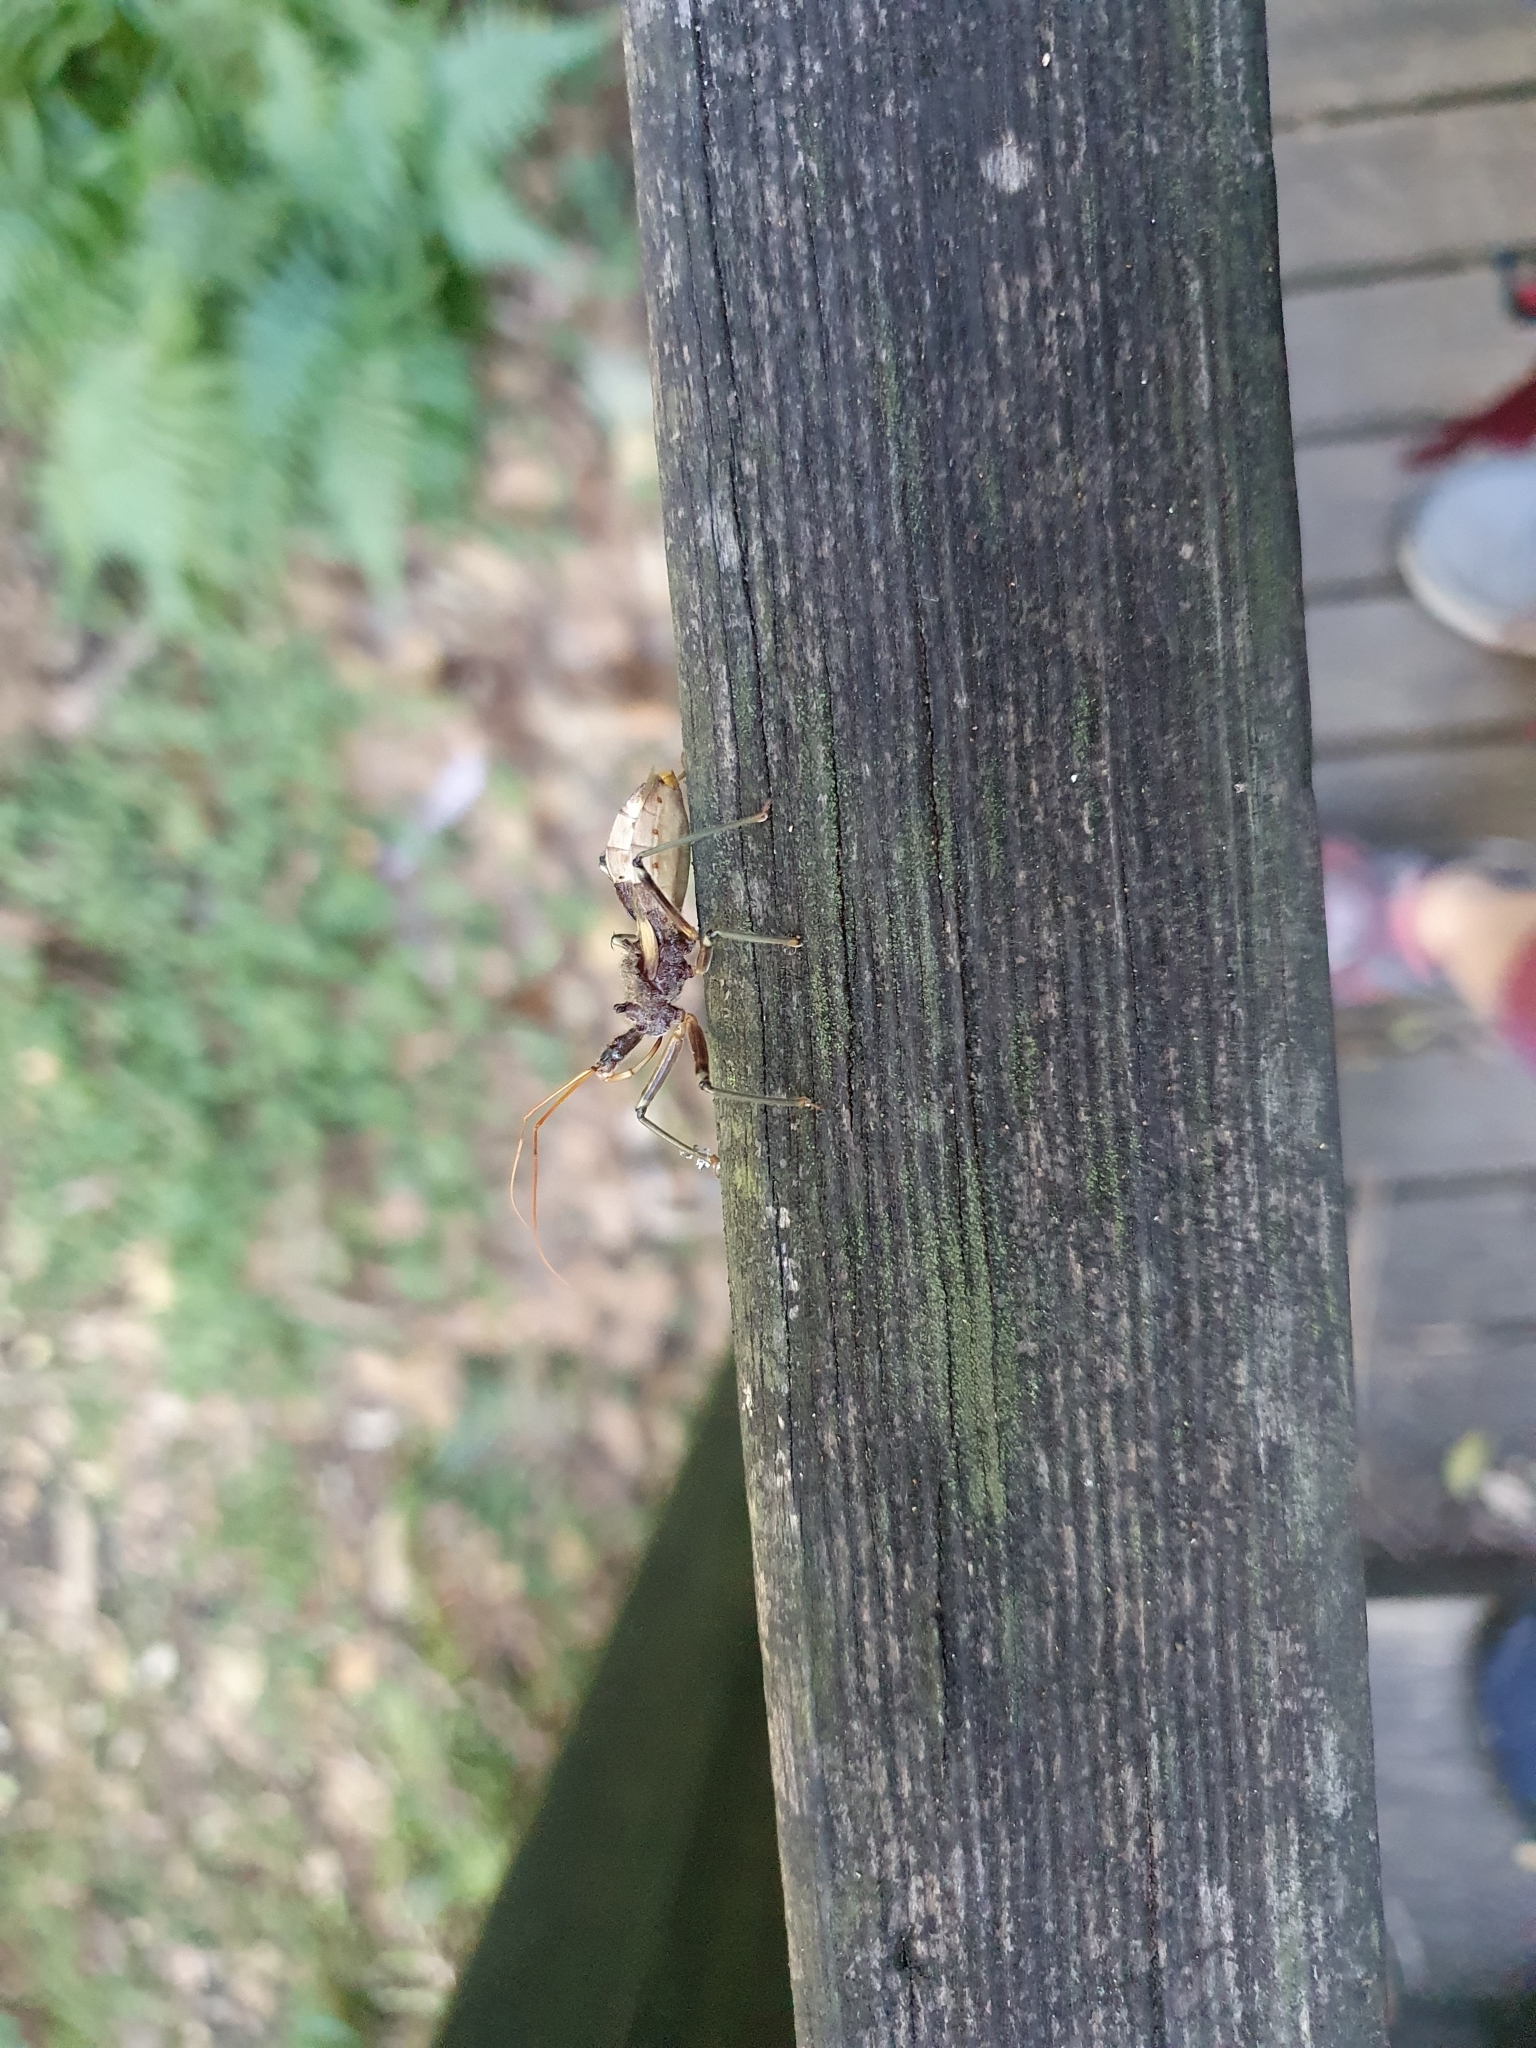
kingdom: Animalia
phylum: Arthropoda
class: Insecta
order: Hemiptera
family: Reduviidae
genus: Pristhesancus
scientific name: Pristhesancus plagipennis
